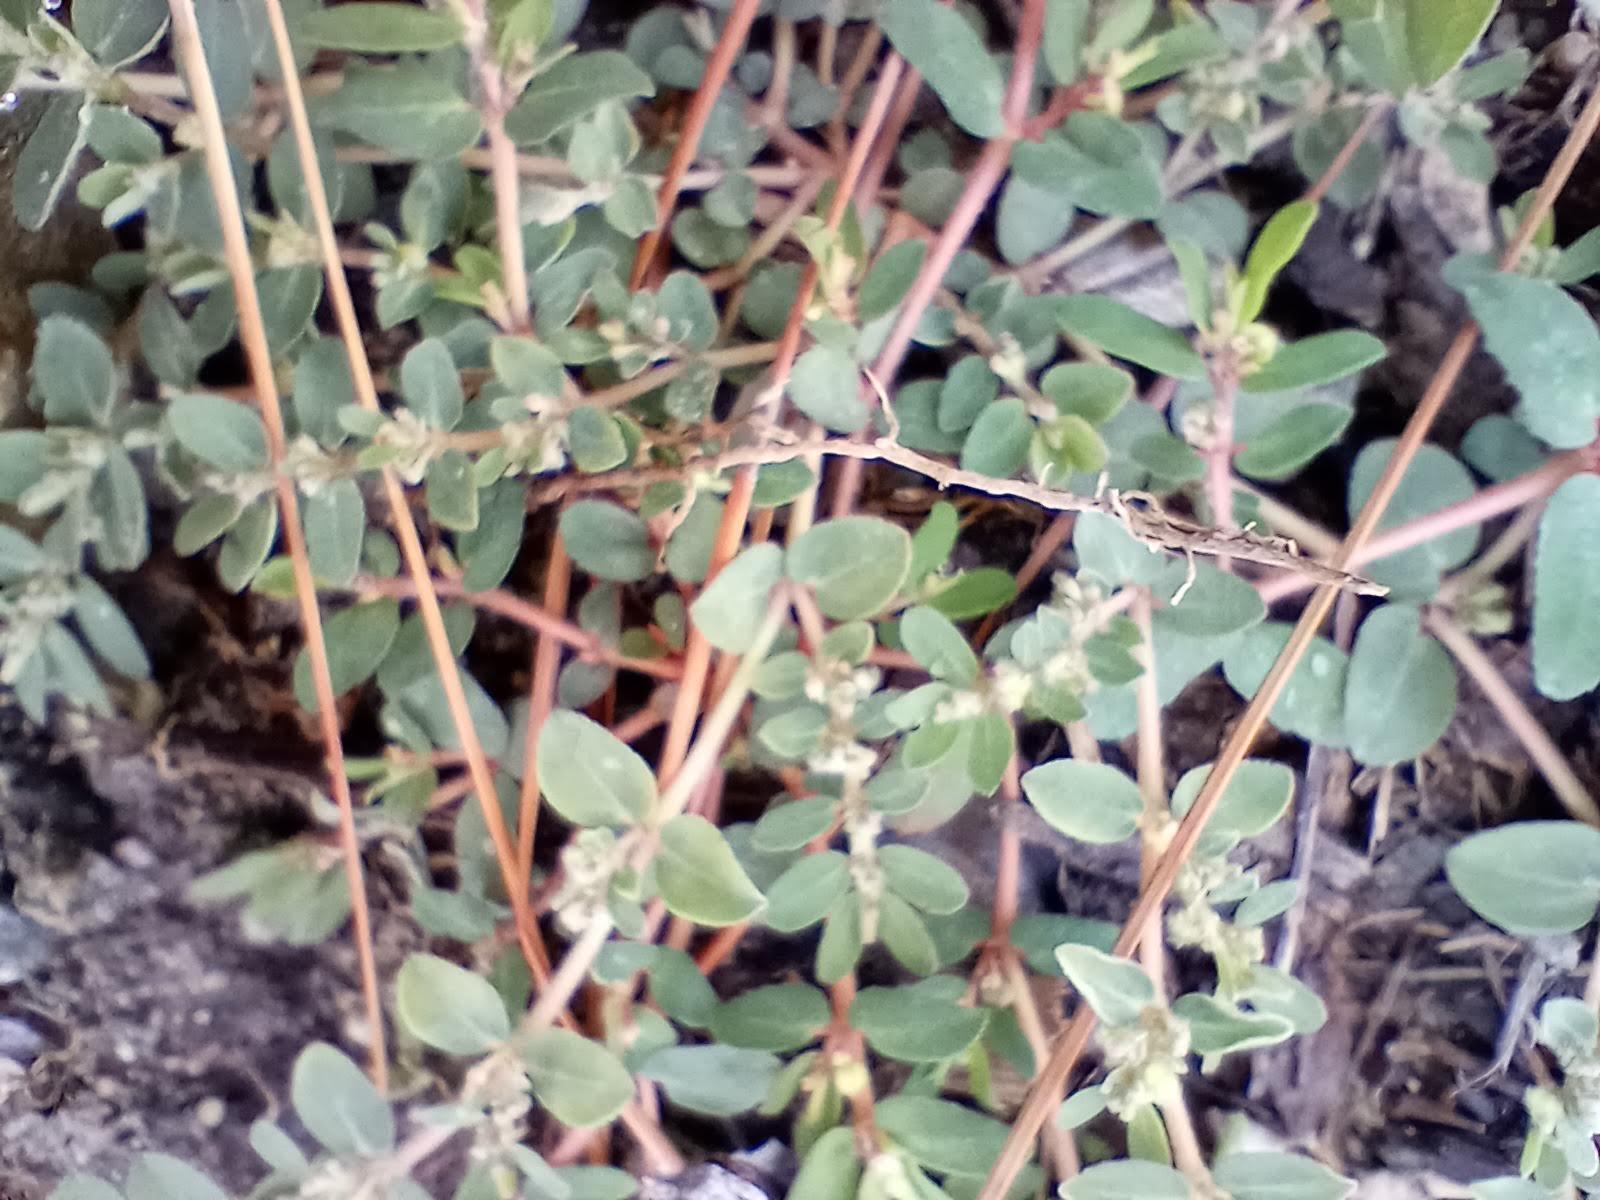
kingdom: Plantae
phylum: Tracheophyta
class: Magnoliopsida
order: Malpighiales
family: Euphorbiaceae
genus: Euphorbia
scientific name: Euphorbia prostrata
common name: Prostrate sandmat
